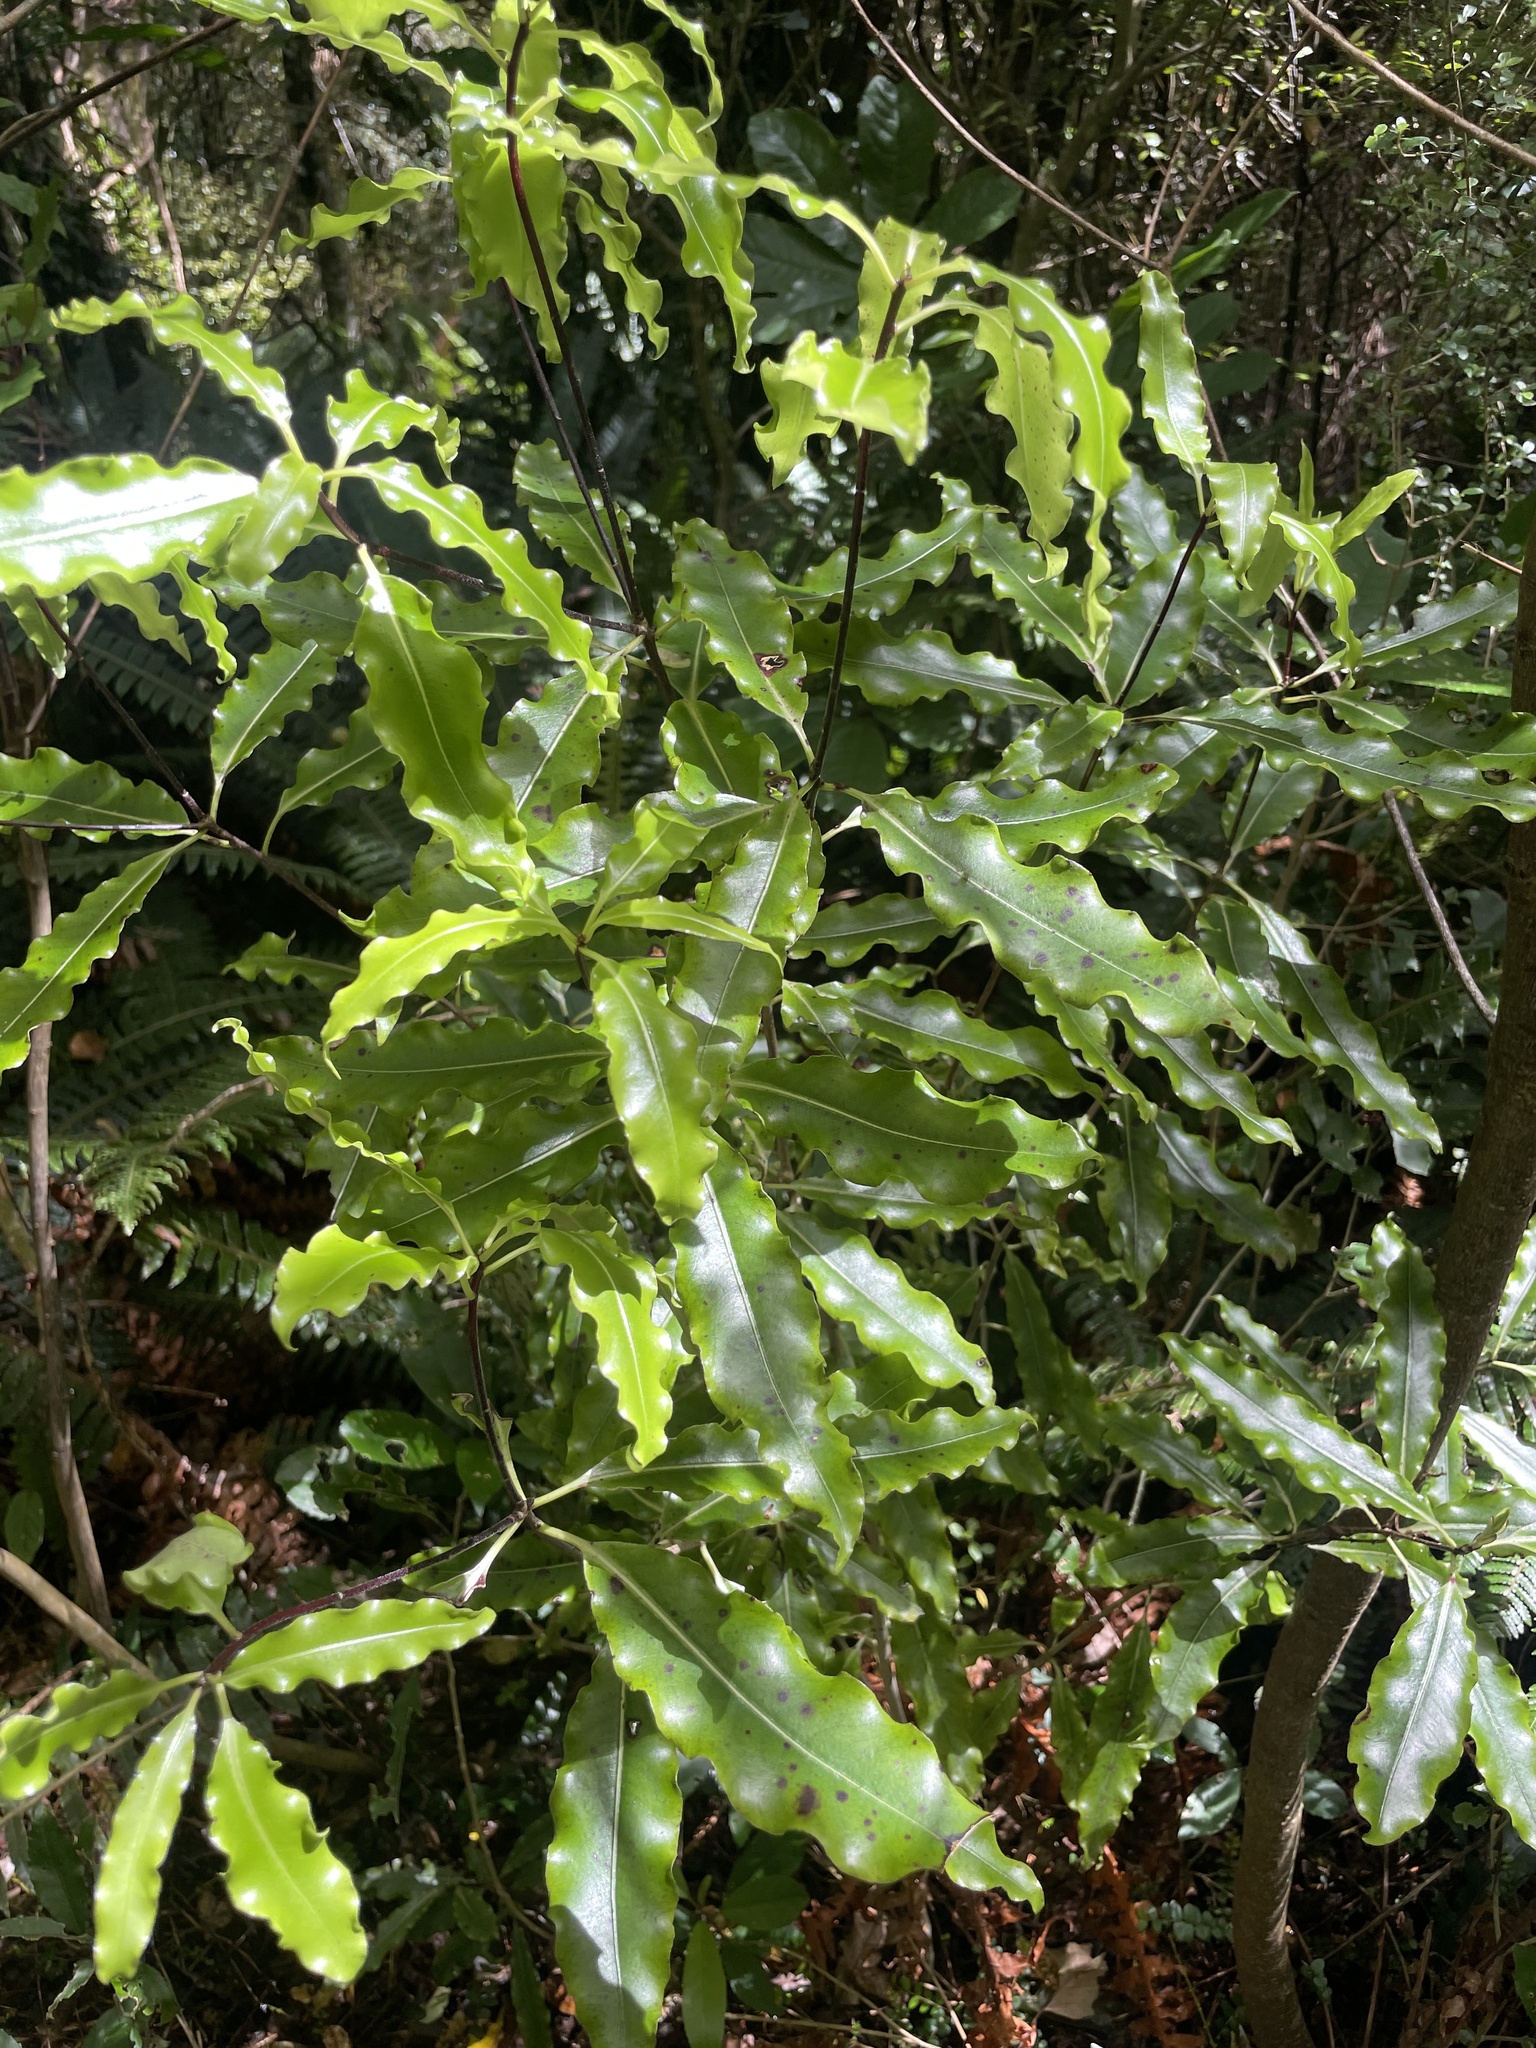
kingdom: Plantae
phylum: Tracheophyta
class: Magnoliopsida
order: Apiales
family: Pittosporaceae
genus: Pittosporum
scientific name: Pittosporum eugenioides
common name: Lemonwood
